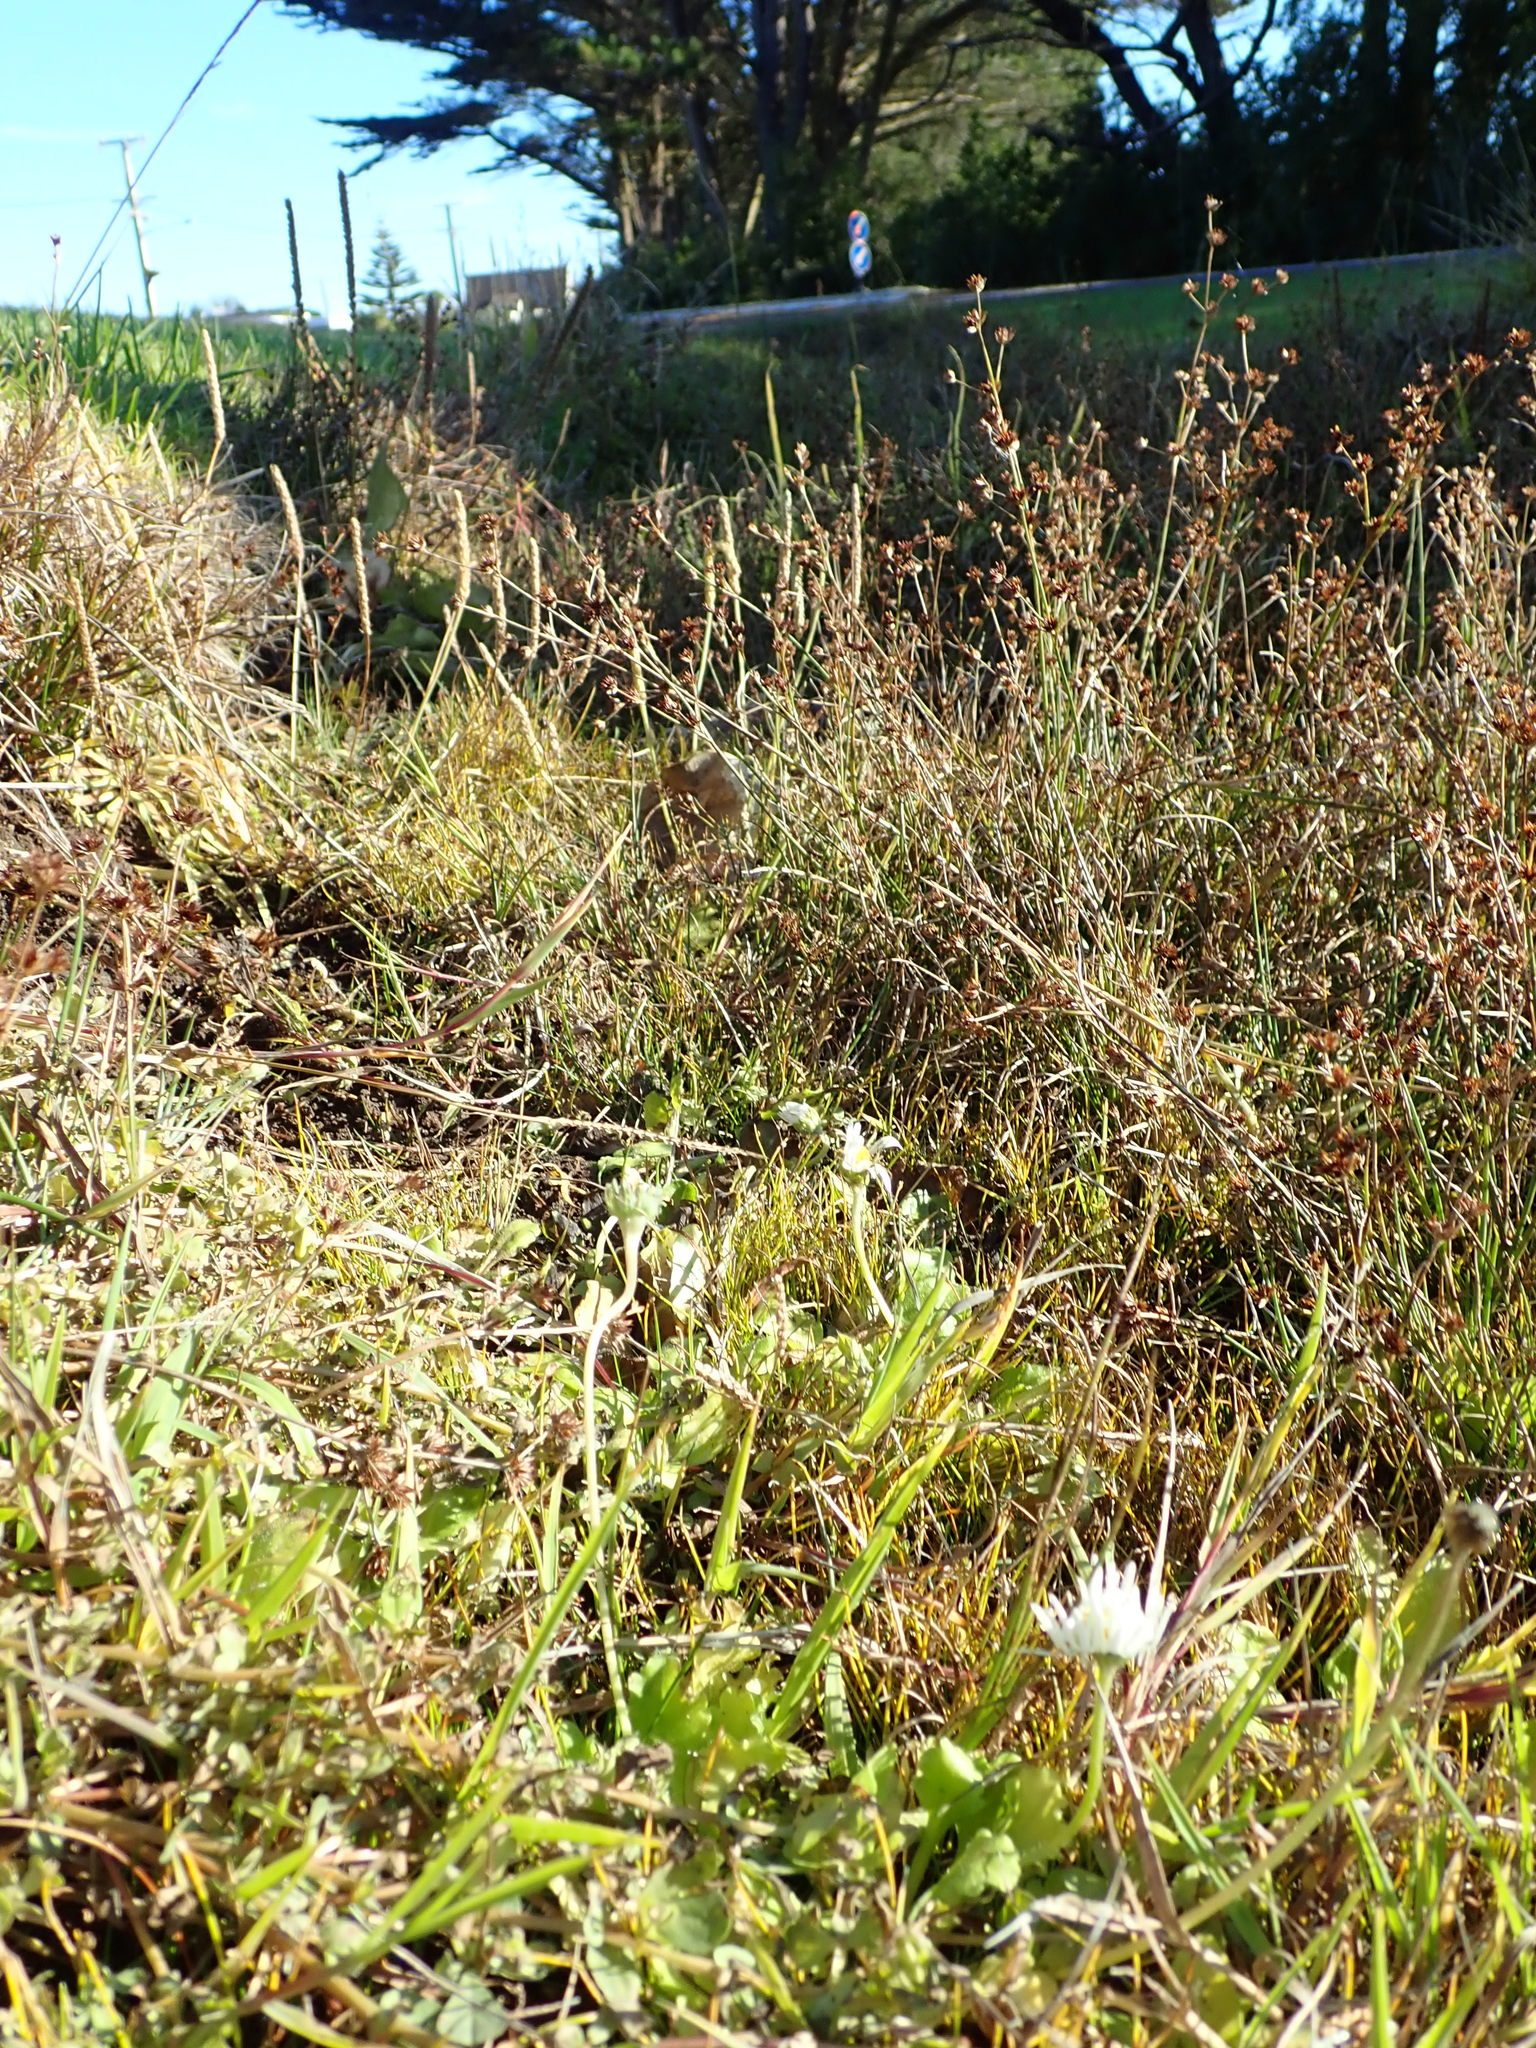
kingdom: Plantae
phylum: Tracheophyta
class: Magnoliopsida
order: Asterales
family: Asteraceae
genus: Bellis
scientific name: Bellis perennis
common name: Lawndaisy
